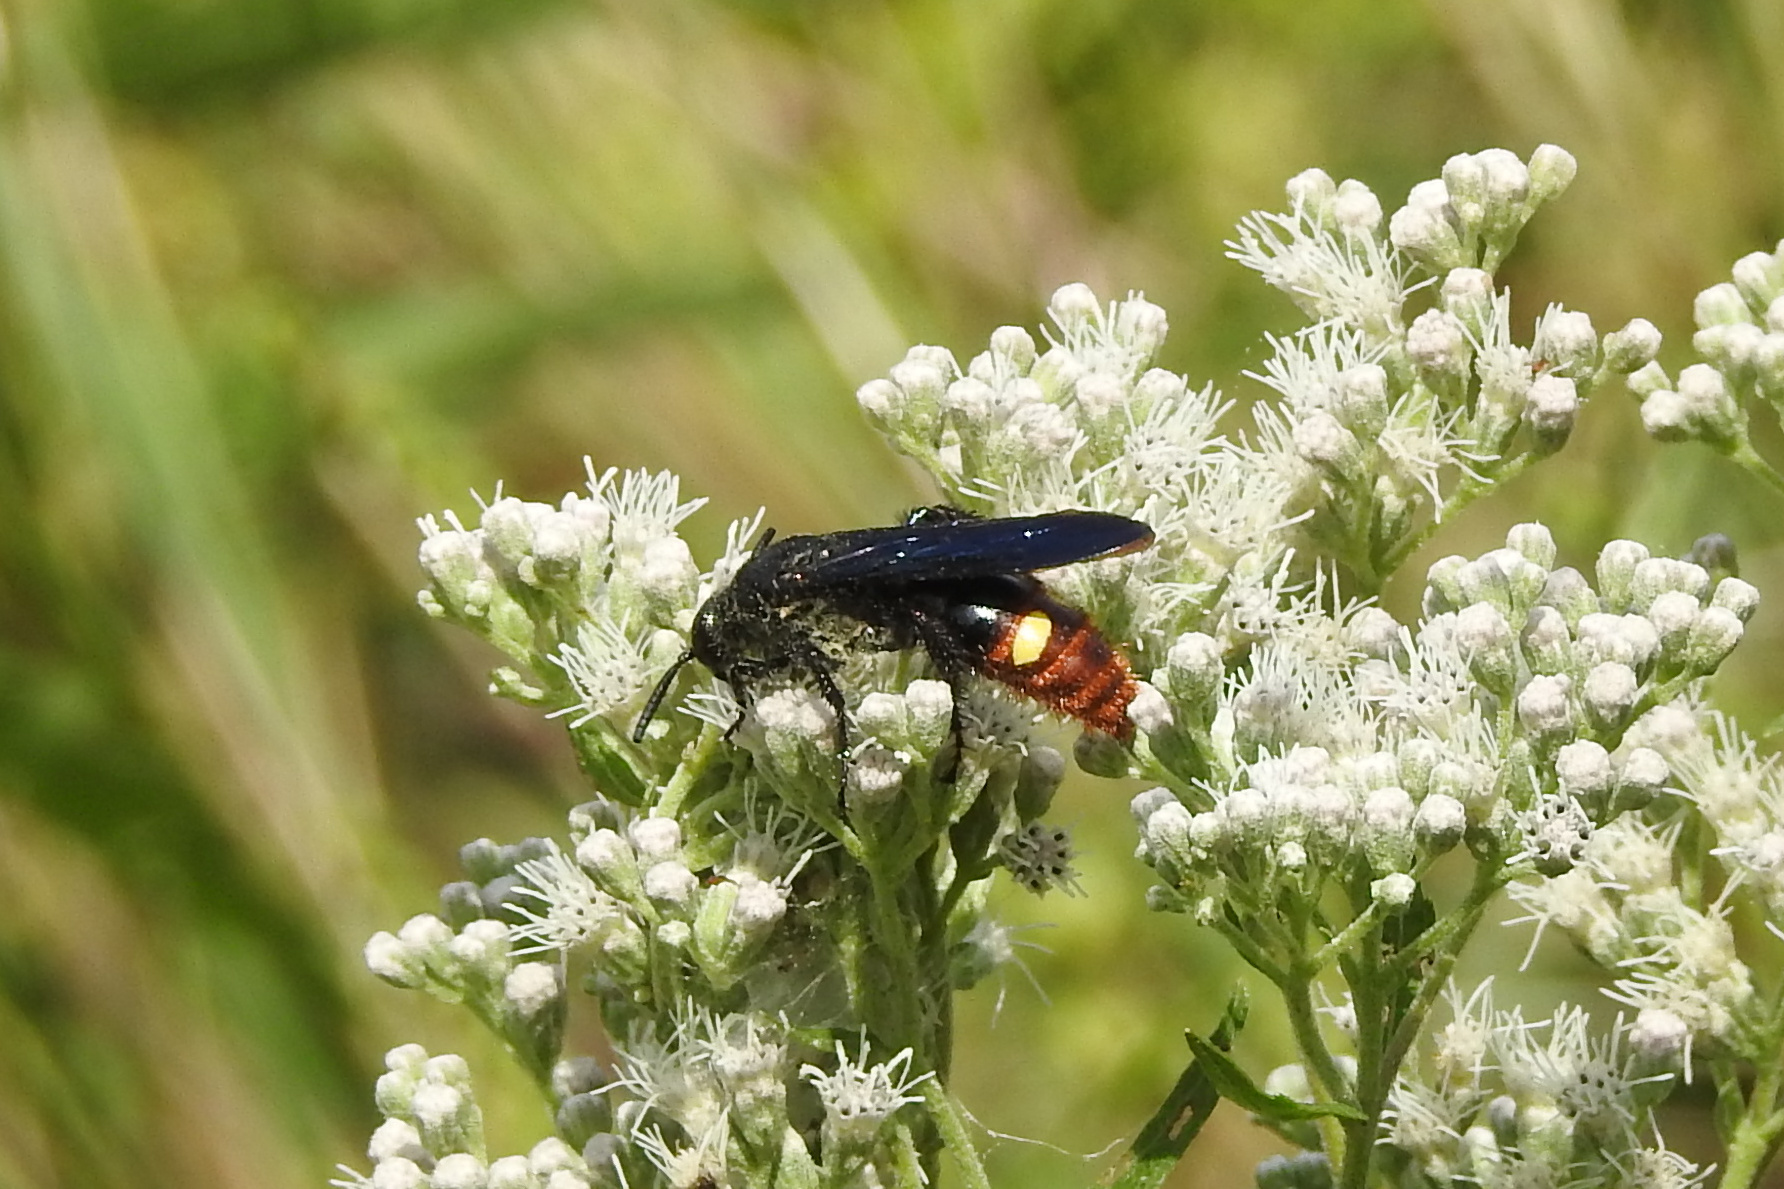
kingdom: Animalia
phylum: Arthropoda
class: Insecta
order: Hymenoptera
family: Scoliidae
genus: Scolia
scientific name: Scolia dubia
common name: Blue-winged scoliid wasp
